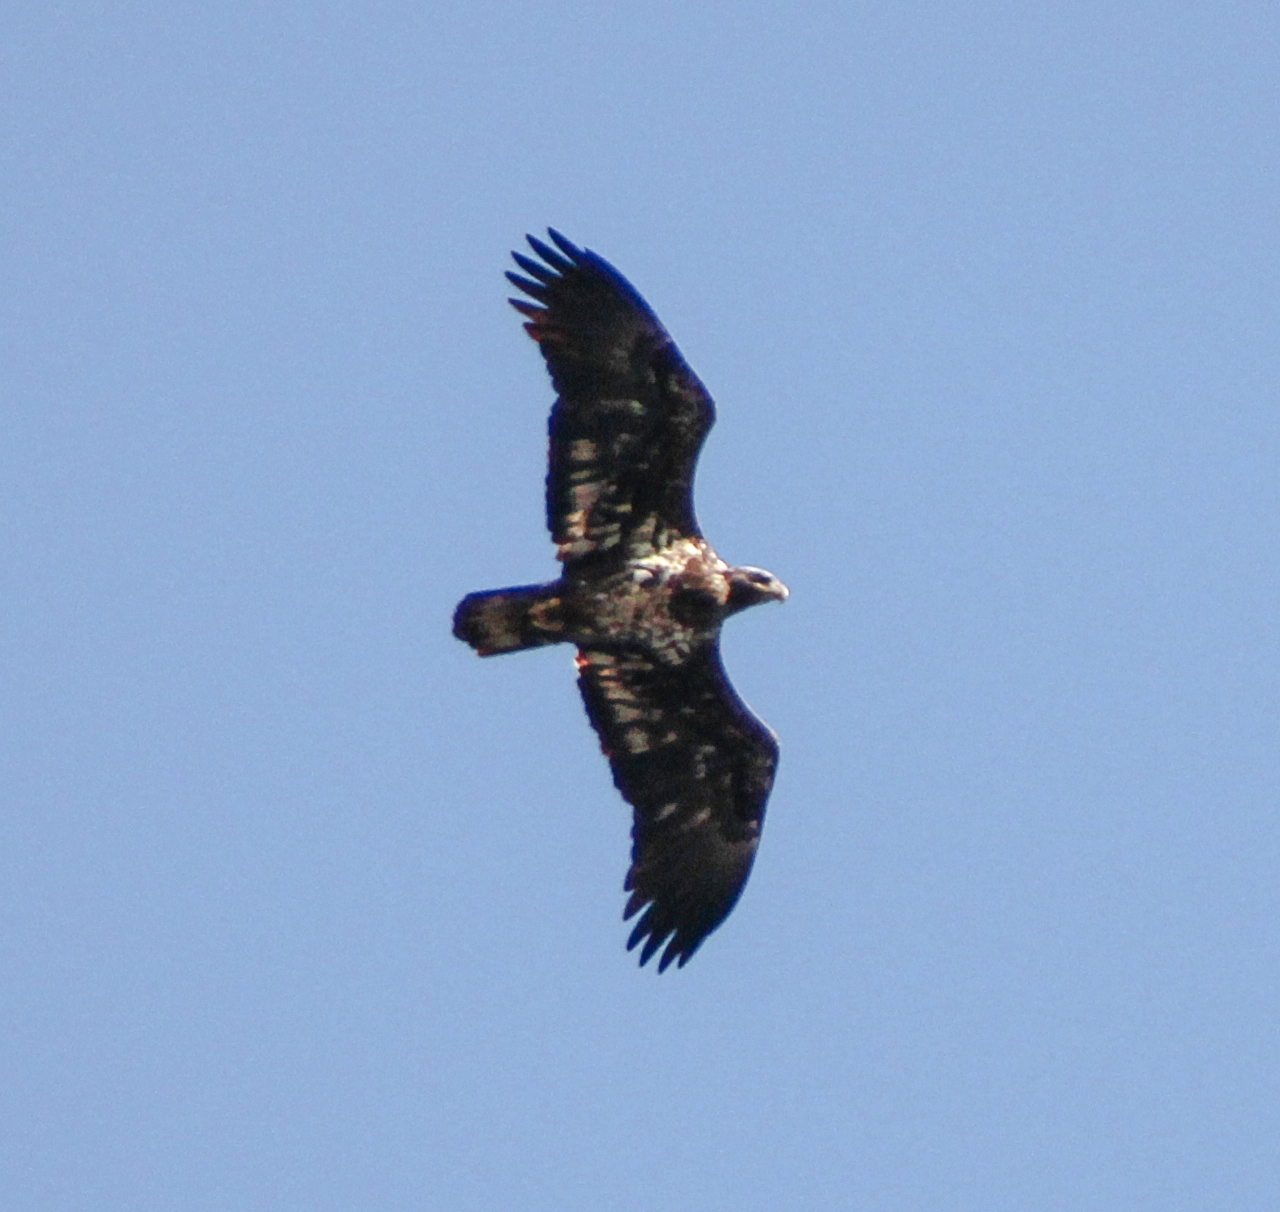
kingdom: Animalia
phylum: Chordata
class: Aves
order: Accipitriformes
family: Accipitridae
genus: Haliaeetus
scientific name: Haliaeetus leucocephalus
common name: Bald eagle
